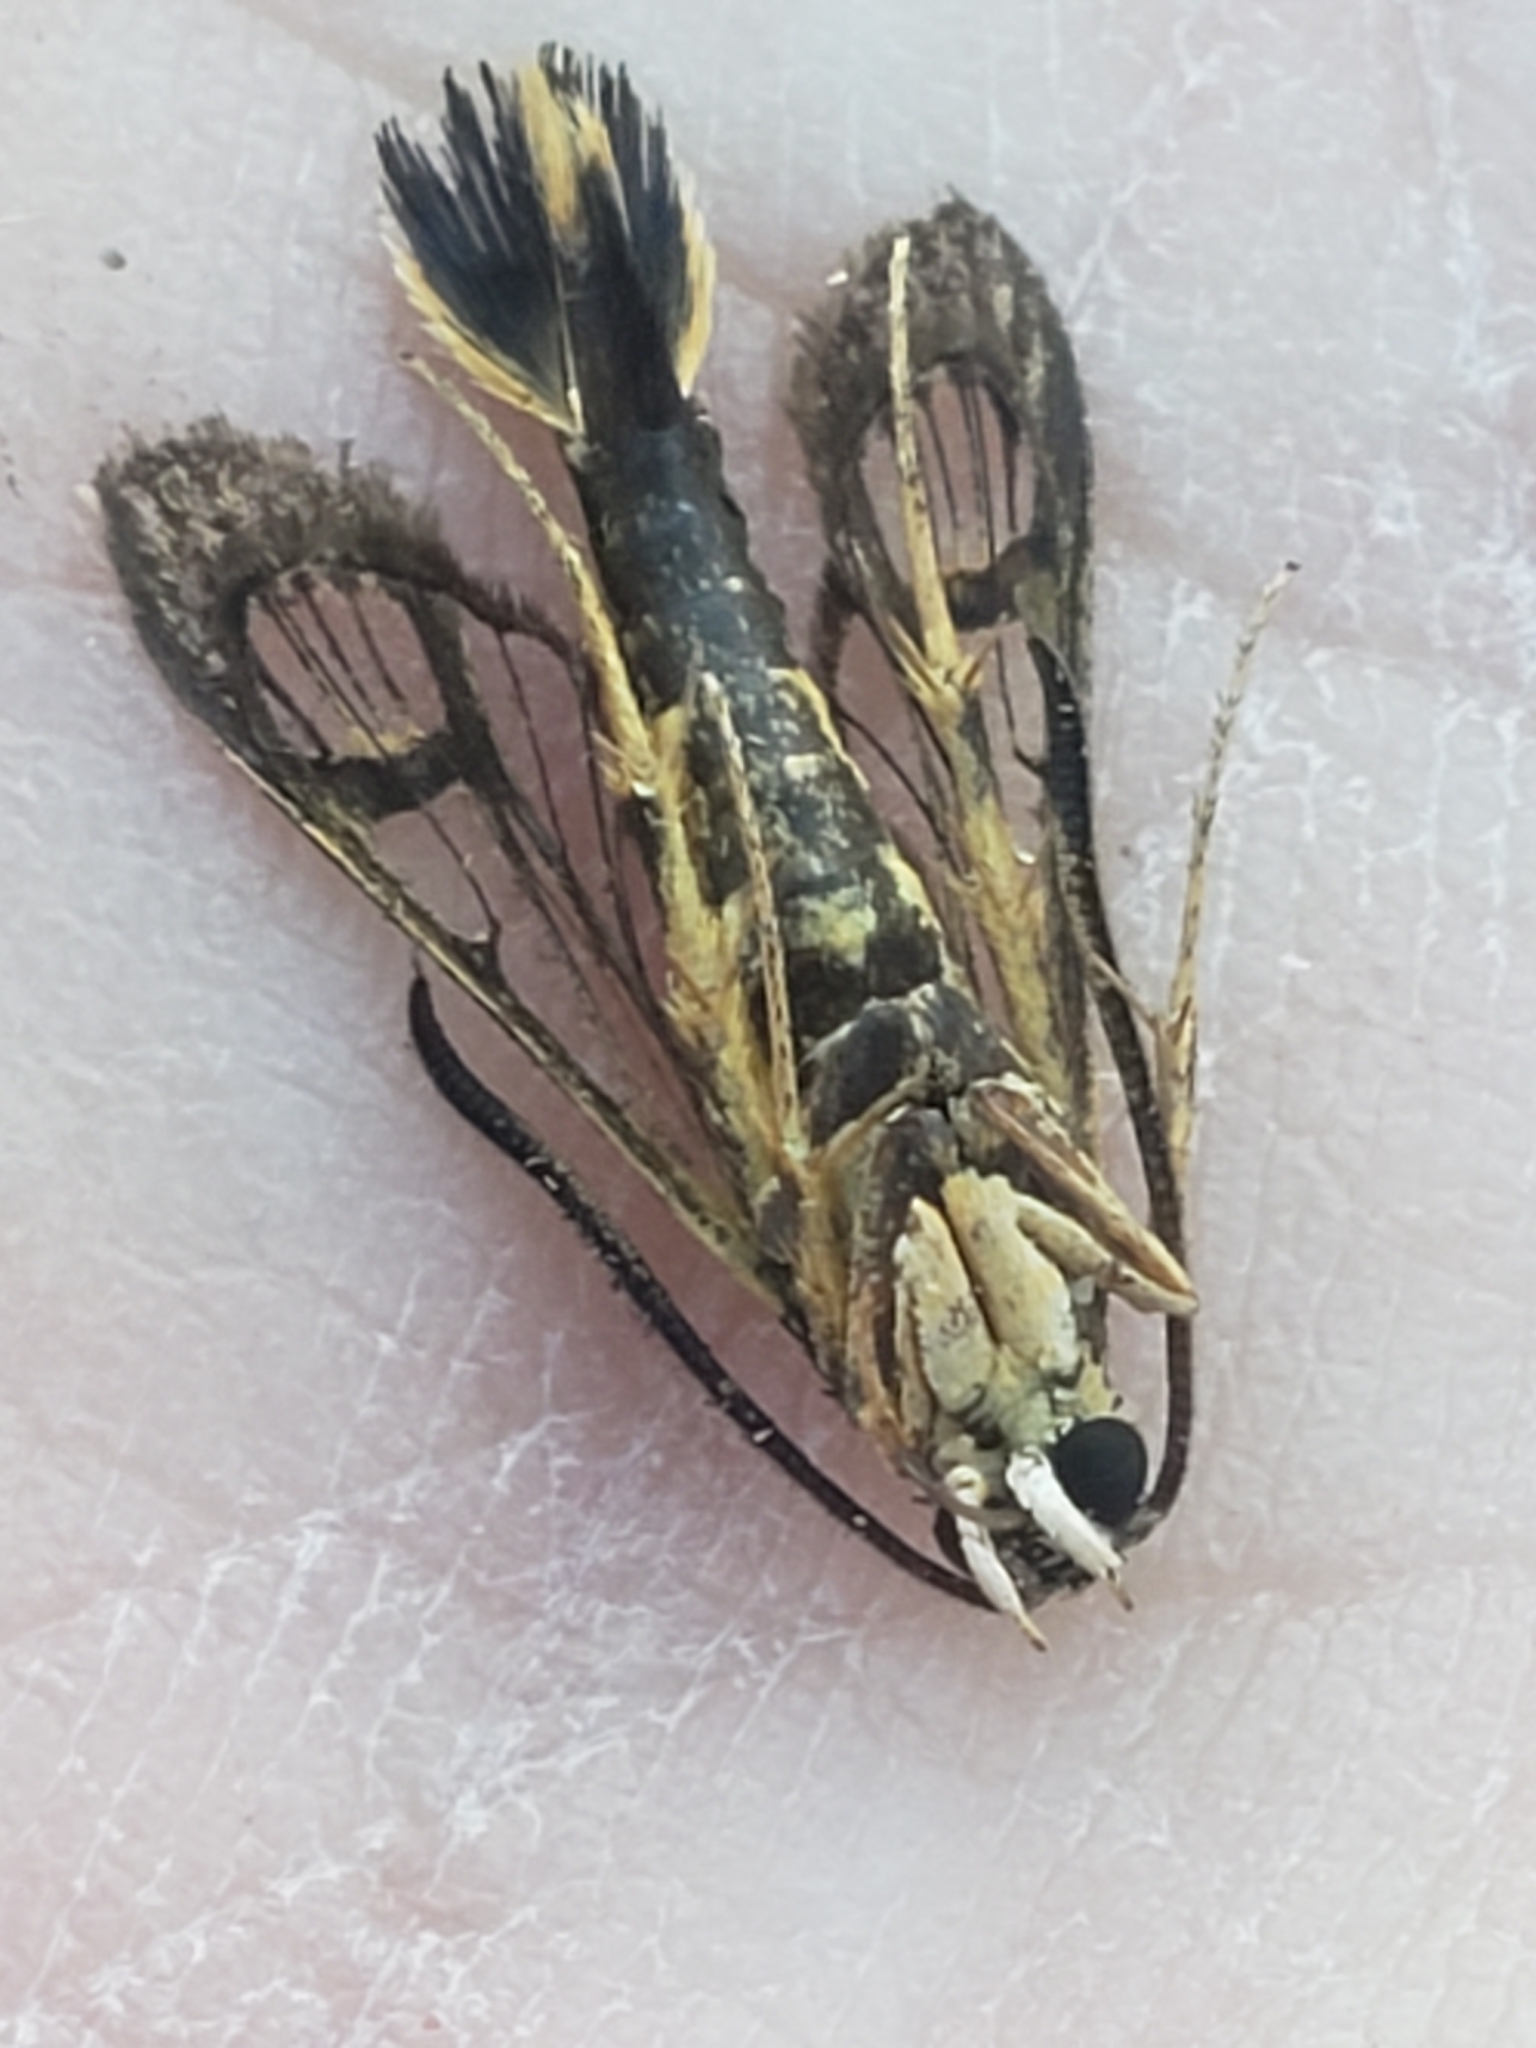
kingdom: Animalia
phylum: Arthropoda
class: Insecta
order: Lepidoptera
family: Sesiidae
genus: Carmenta
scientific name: Carmenta bassiformis
